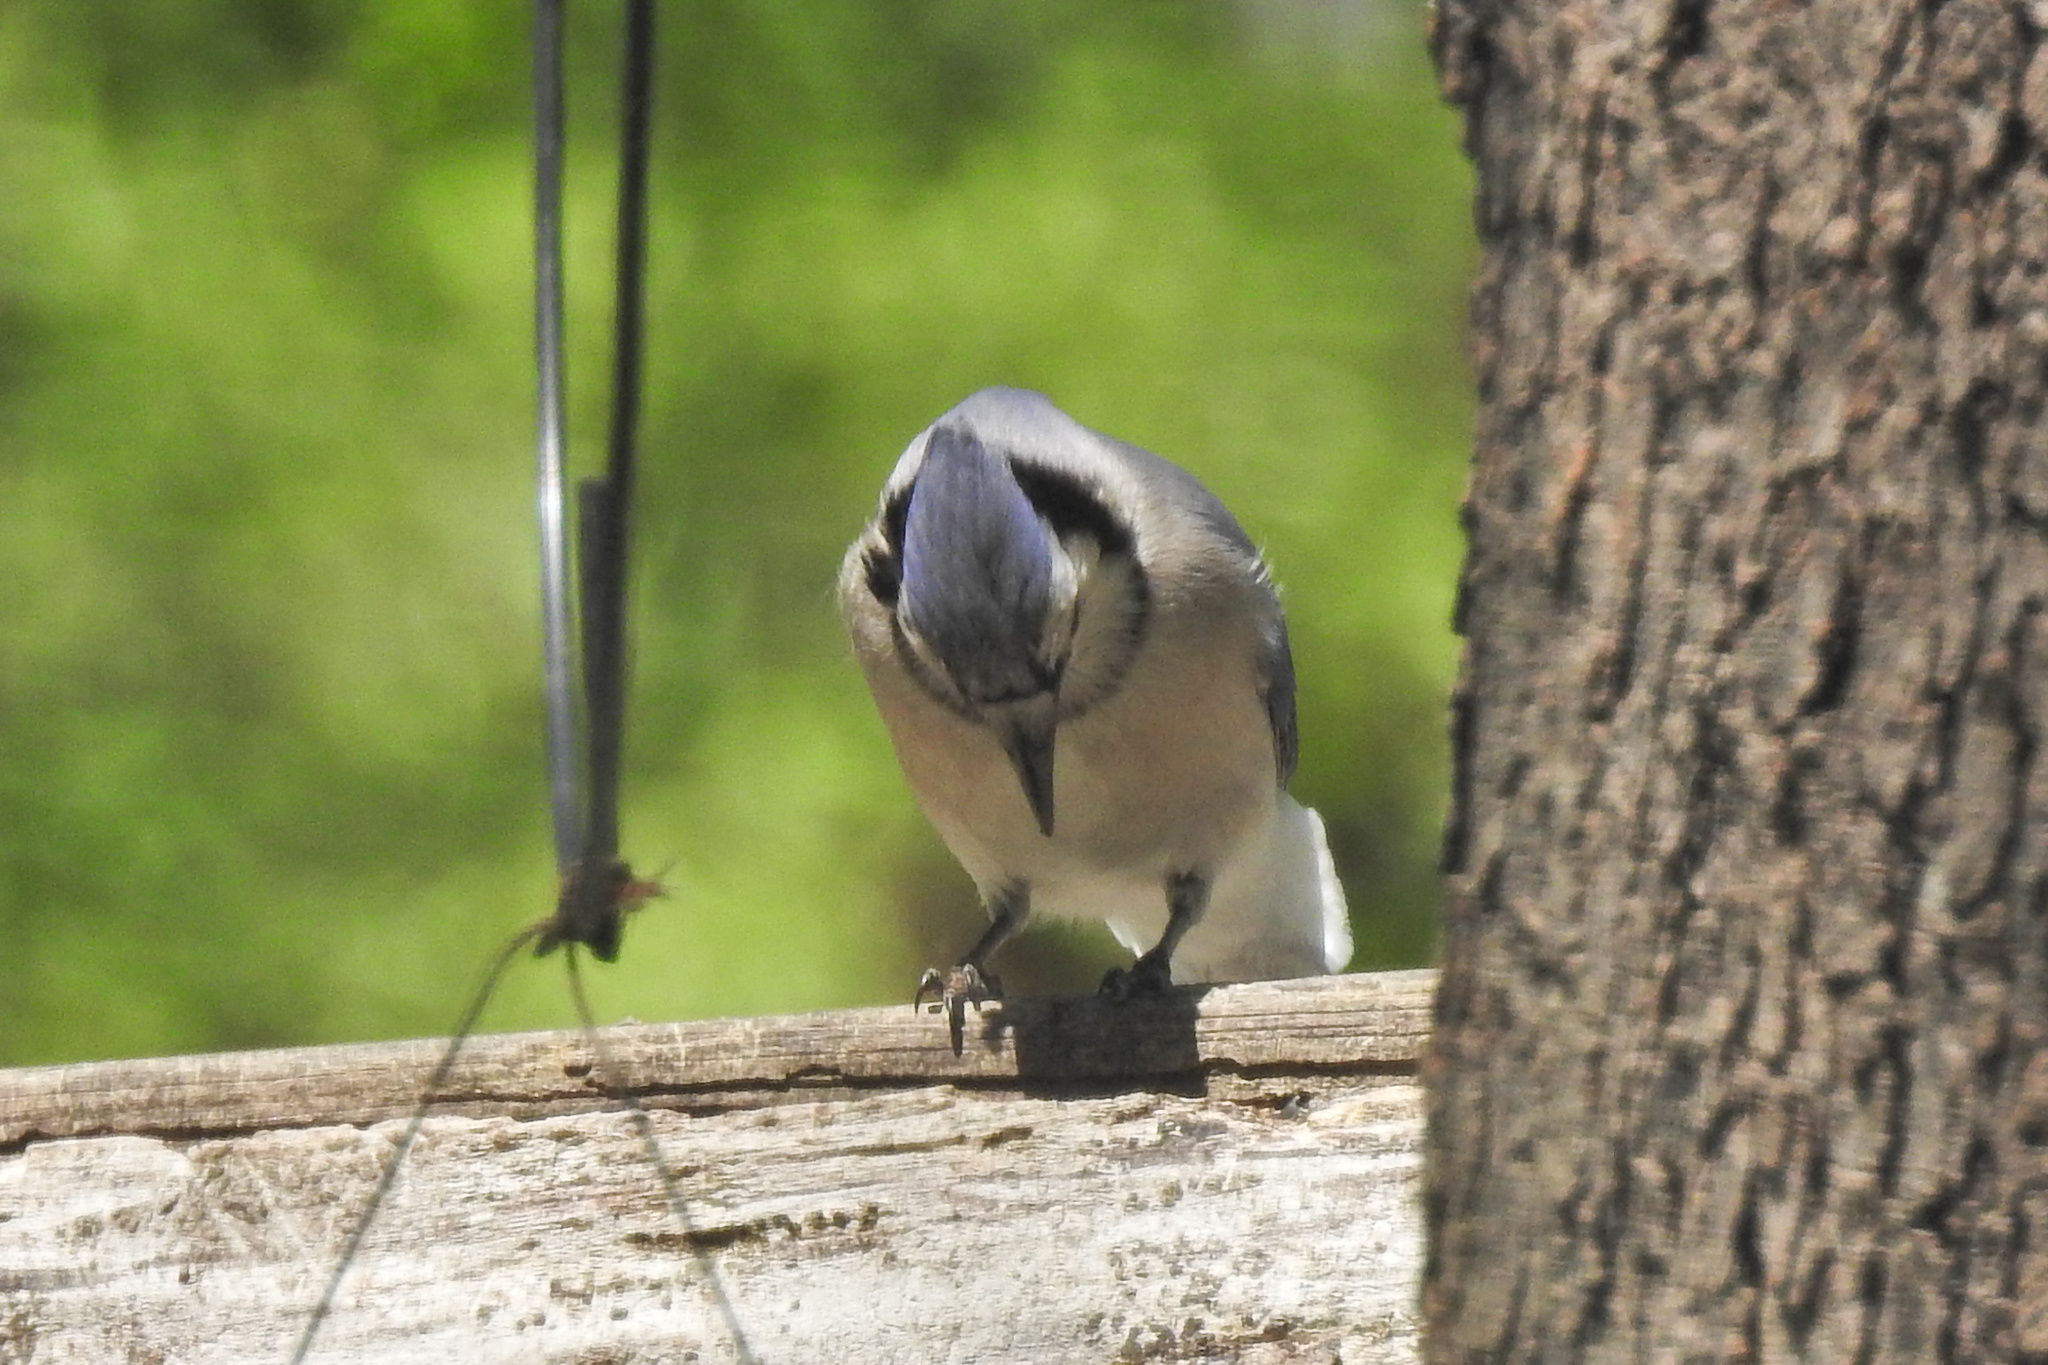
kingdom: Animalia
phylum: Chordata
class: Aves
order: Passeriformes
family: Corvidae
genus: Cyanocitta
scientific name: Cyanocitta cristata
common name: Blue jay
